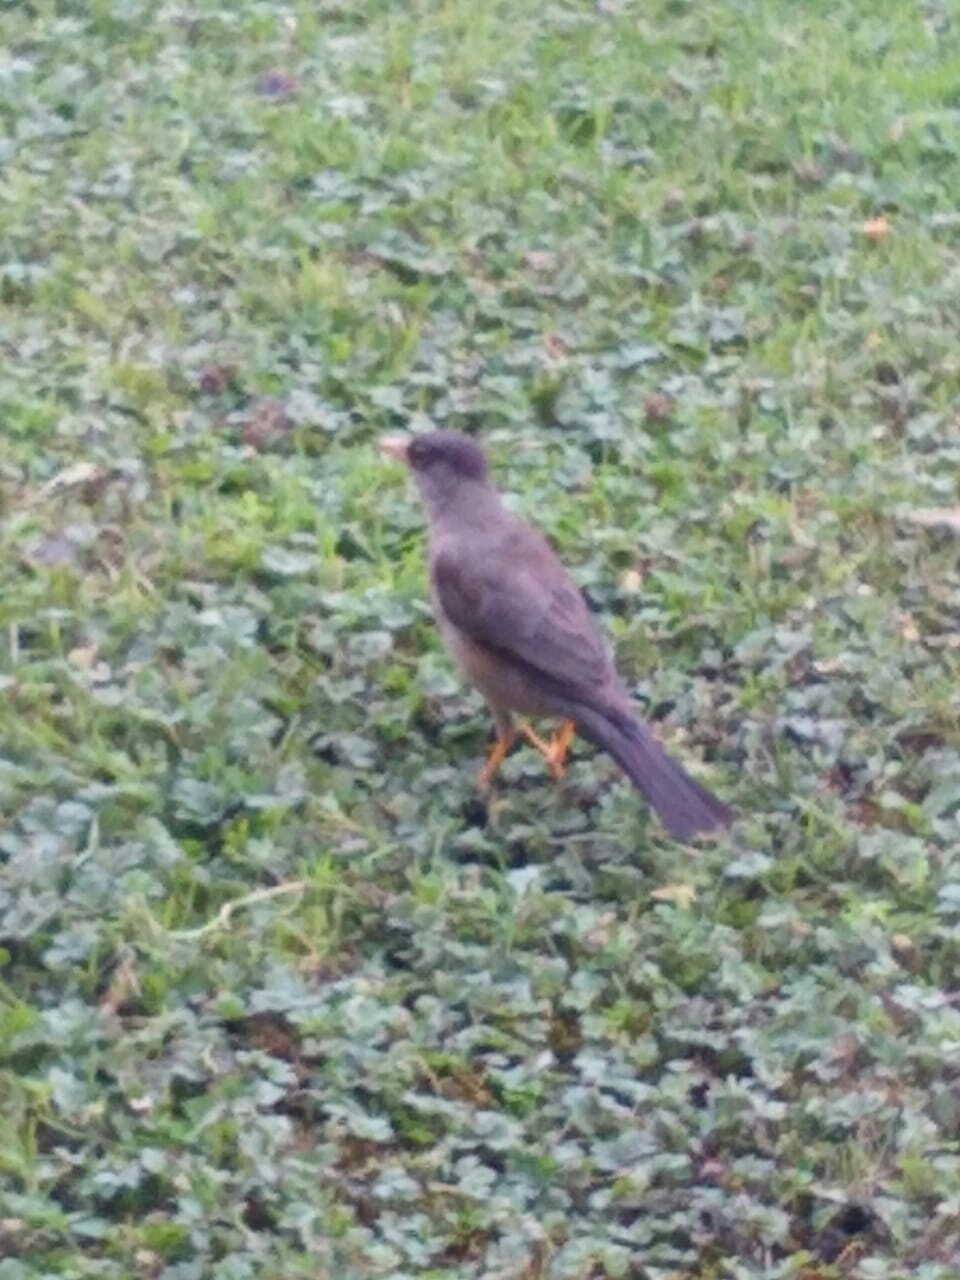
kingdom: Animalia
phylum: Chordata
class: Aves
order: Passeriformes
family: Turdidae
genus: Turdus
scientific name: Turdus falcklandii
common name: Austral thrush
